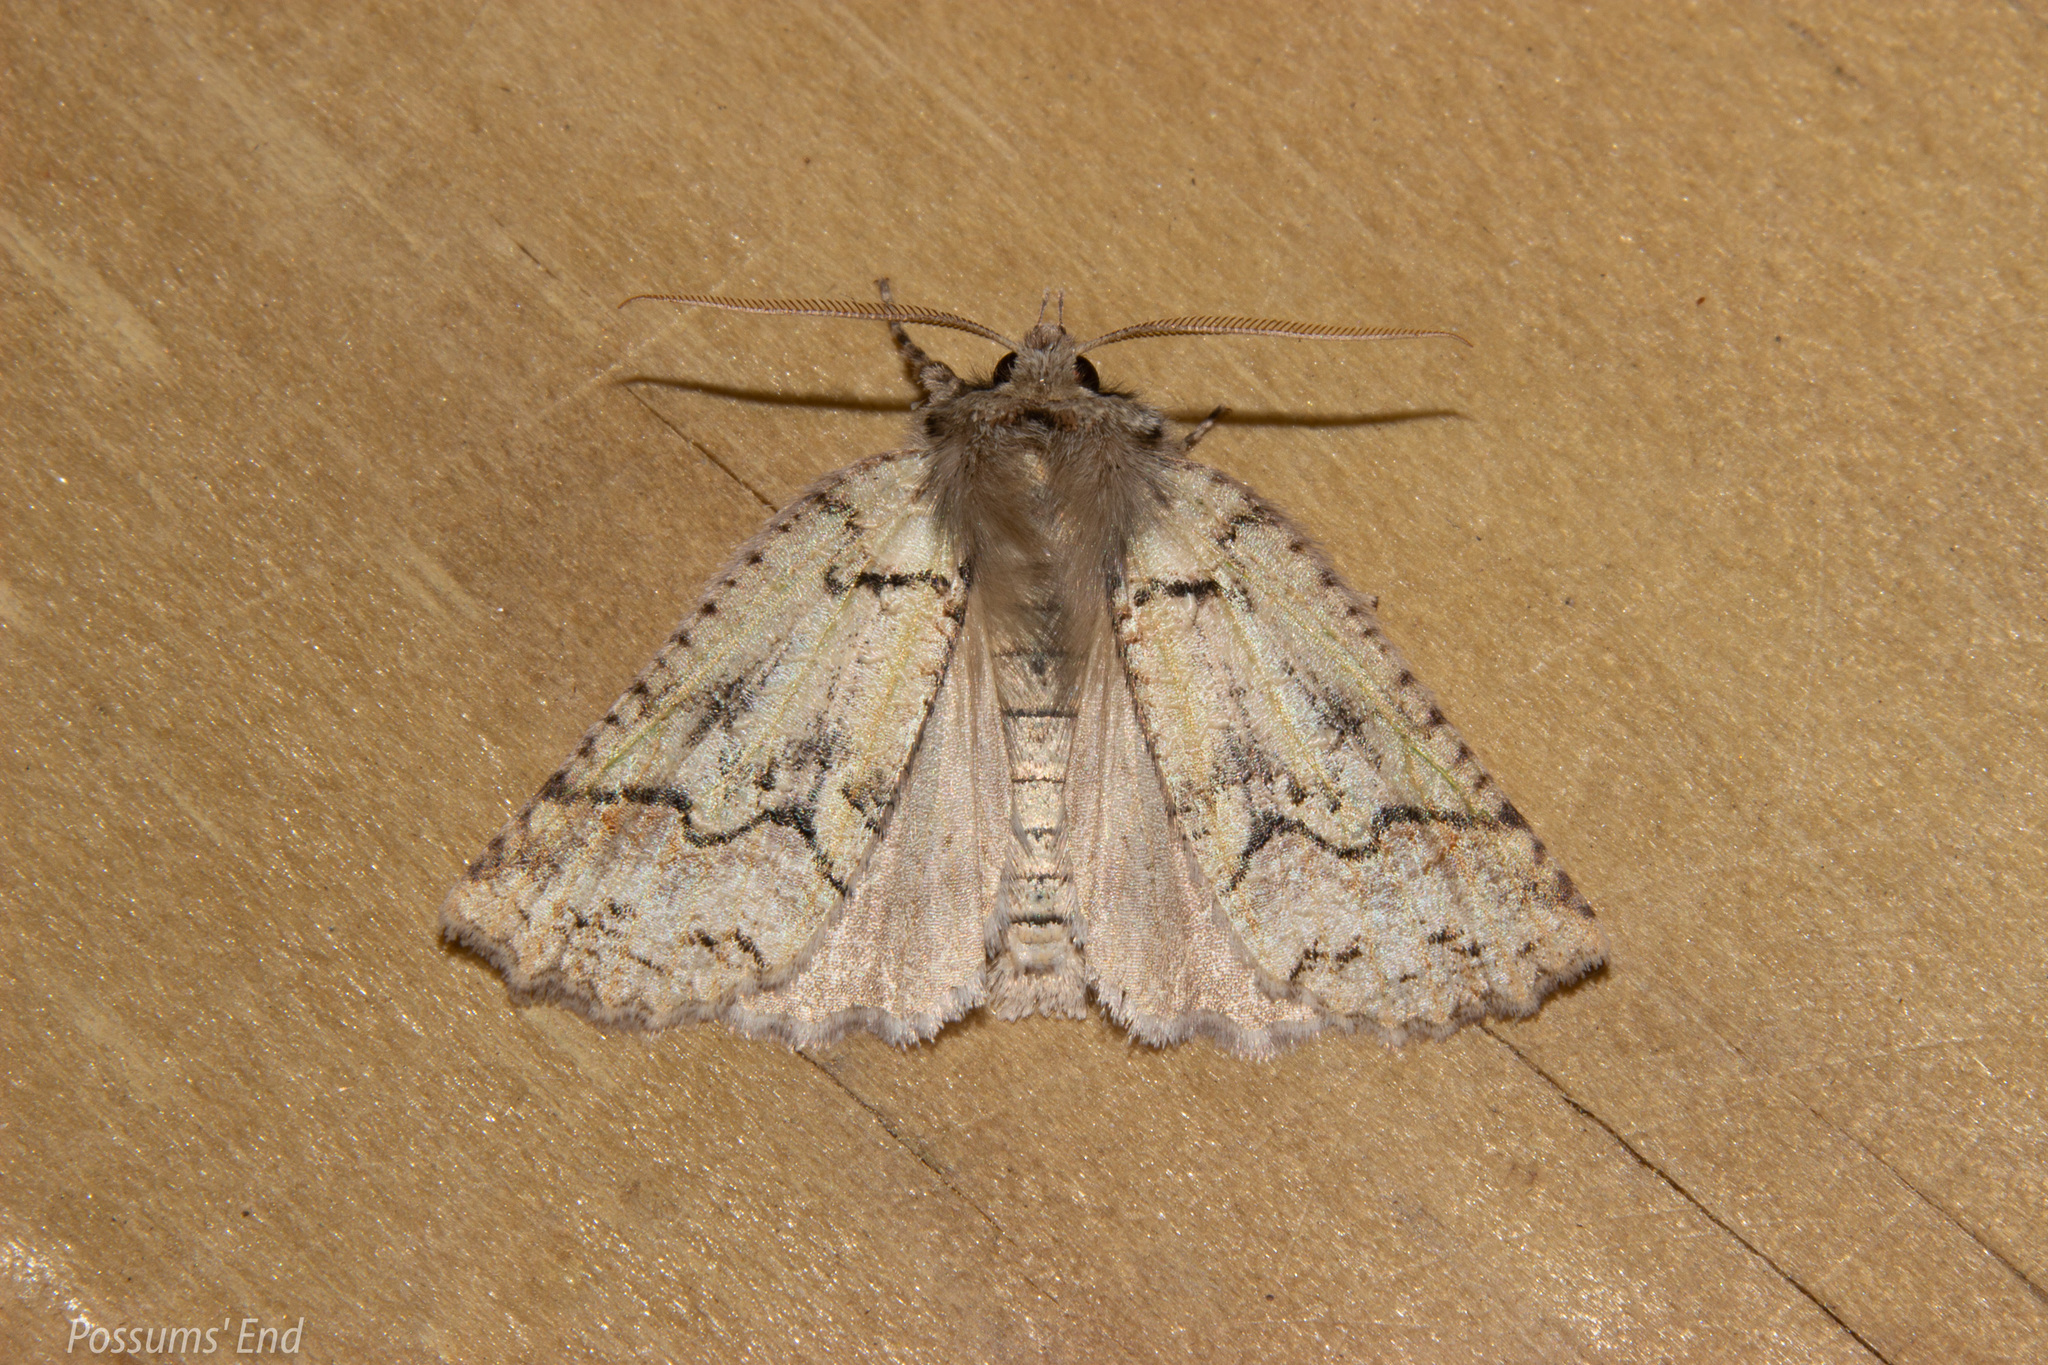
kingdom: Animalia
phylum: Arthropoda
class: Insecta
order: Lepidoptera
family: Geometridae
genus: Declana
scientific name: Declana floccosa
